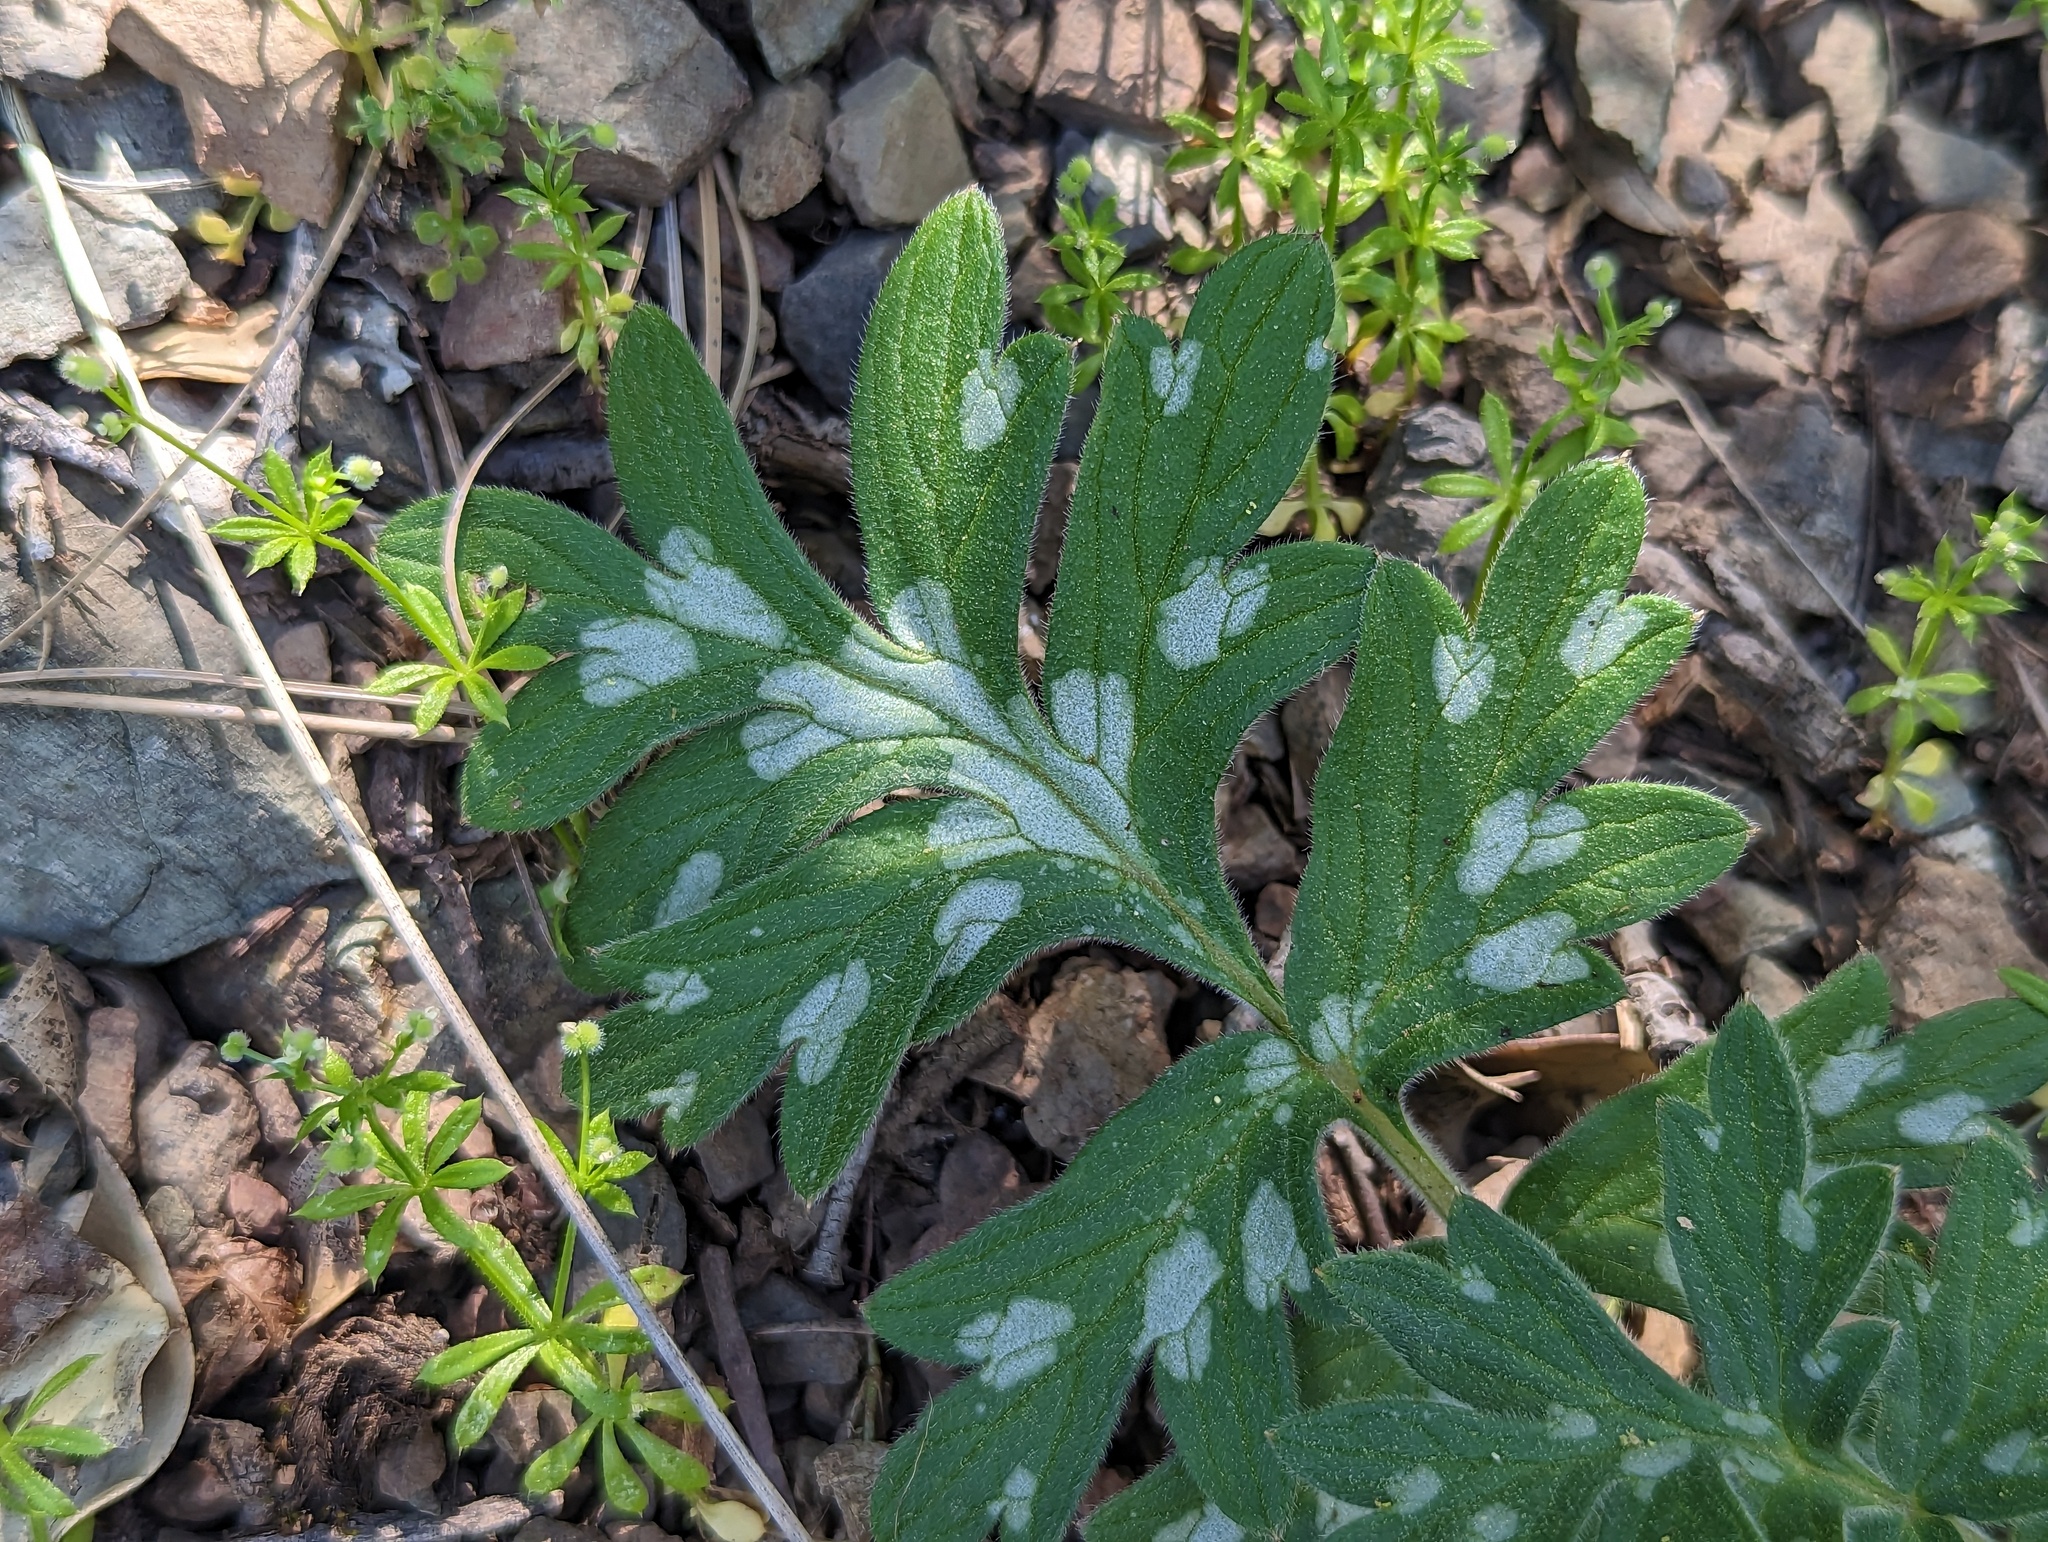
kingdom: Plantae
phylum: Tracheophyta
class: Magnoliopsida
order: Boraginales
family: Hydrophyllaceae
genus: Hydrophyllum
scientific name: Hydrophyllum occidentale
